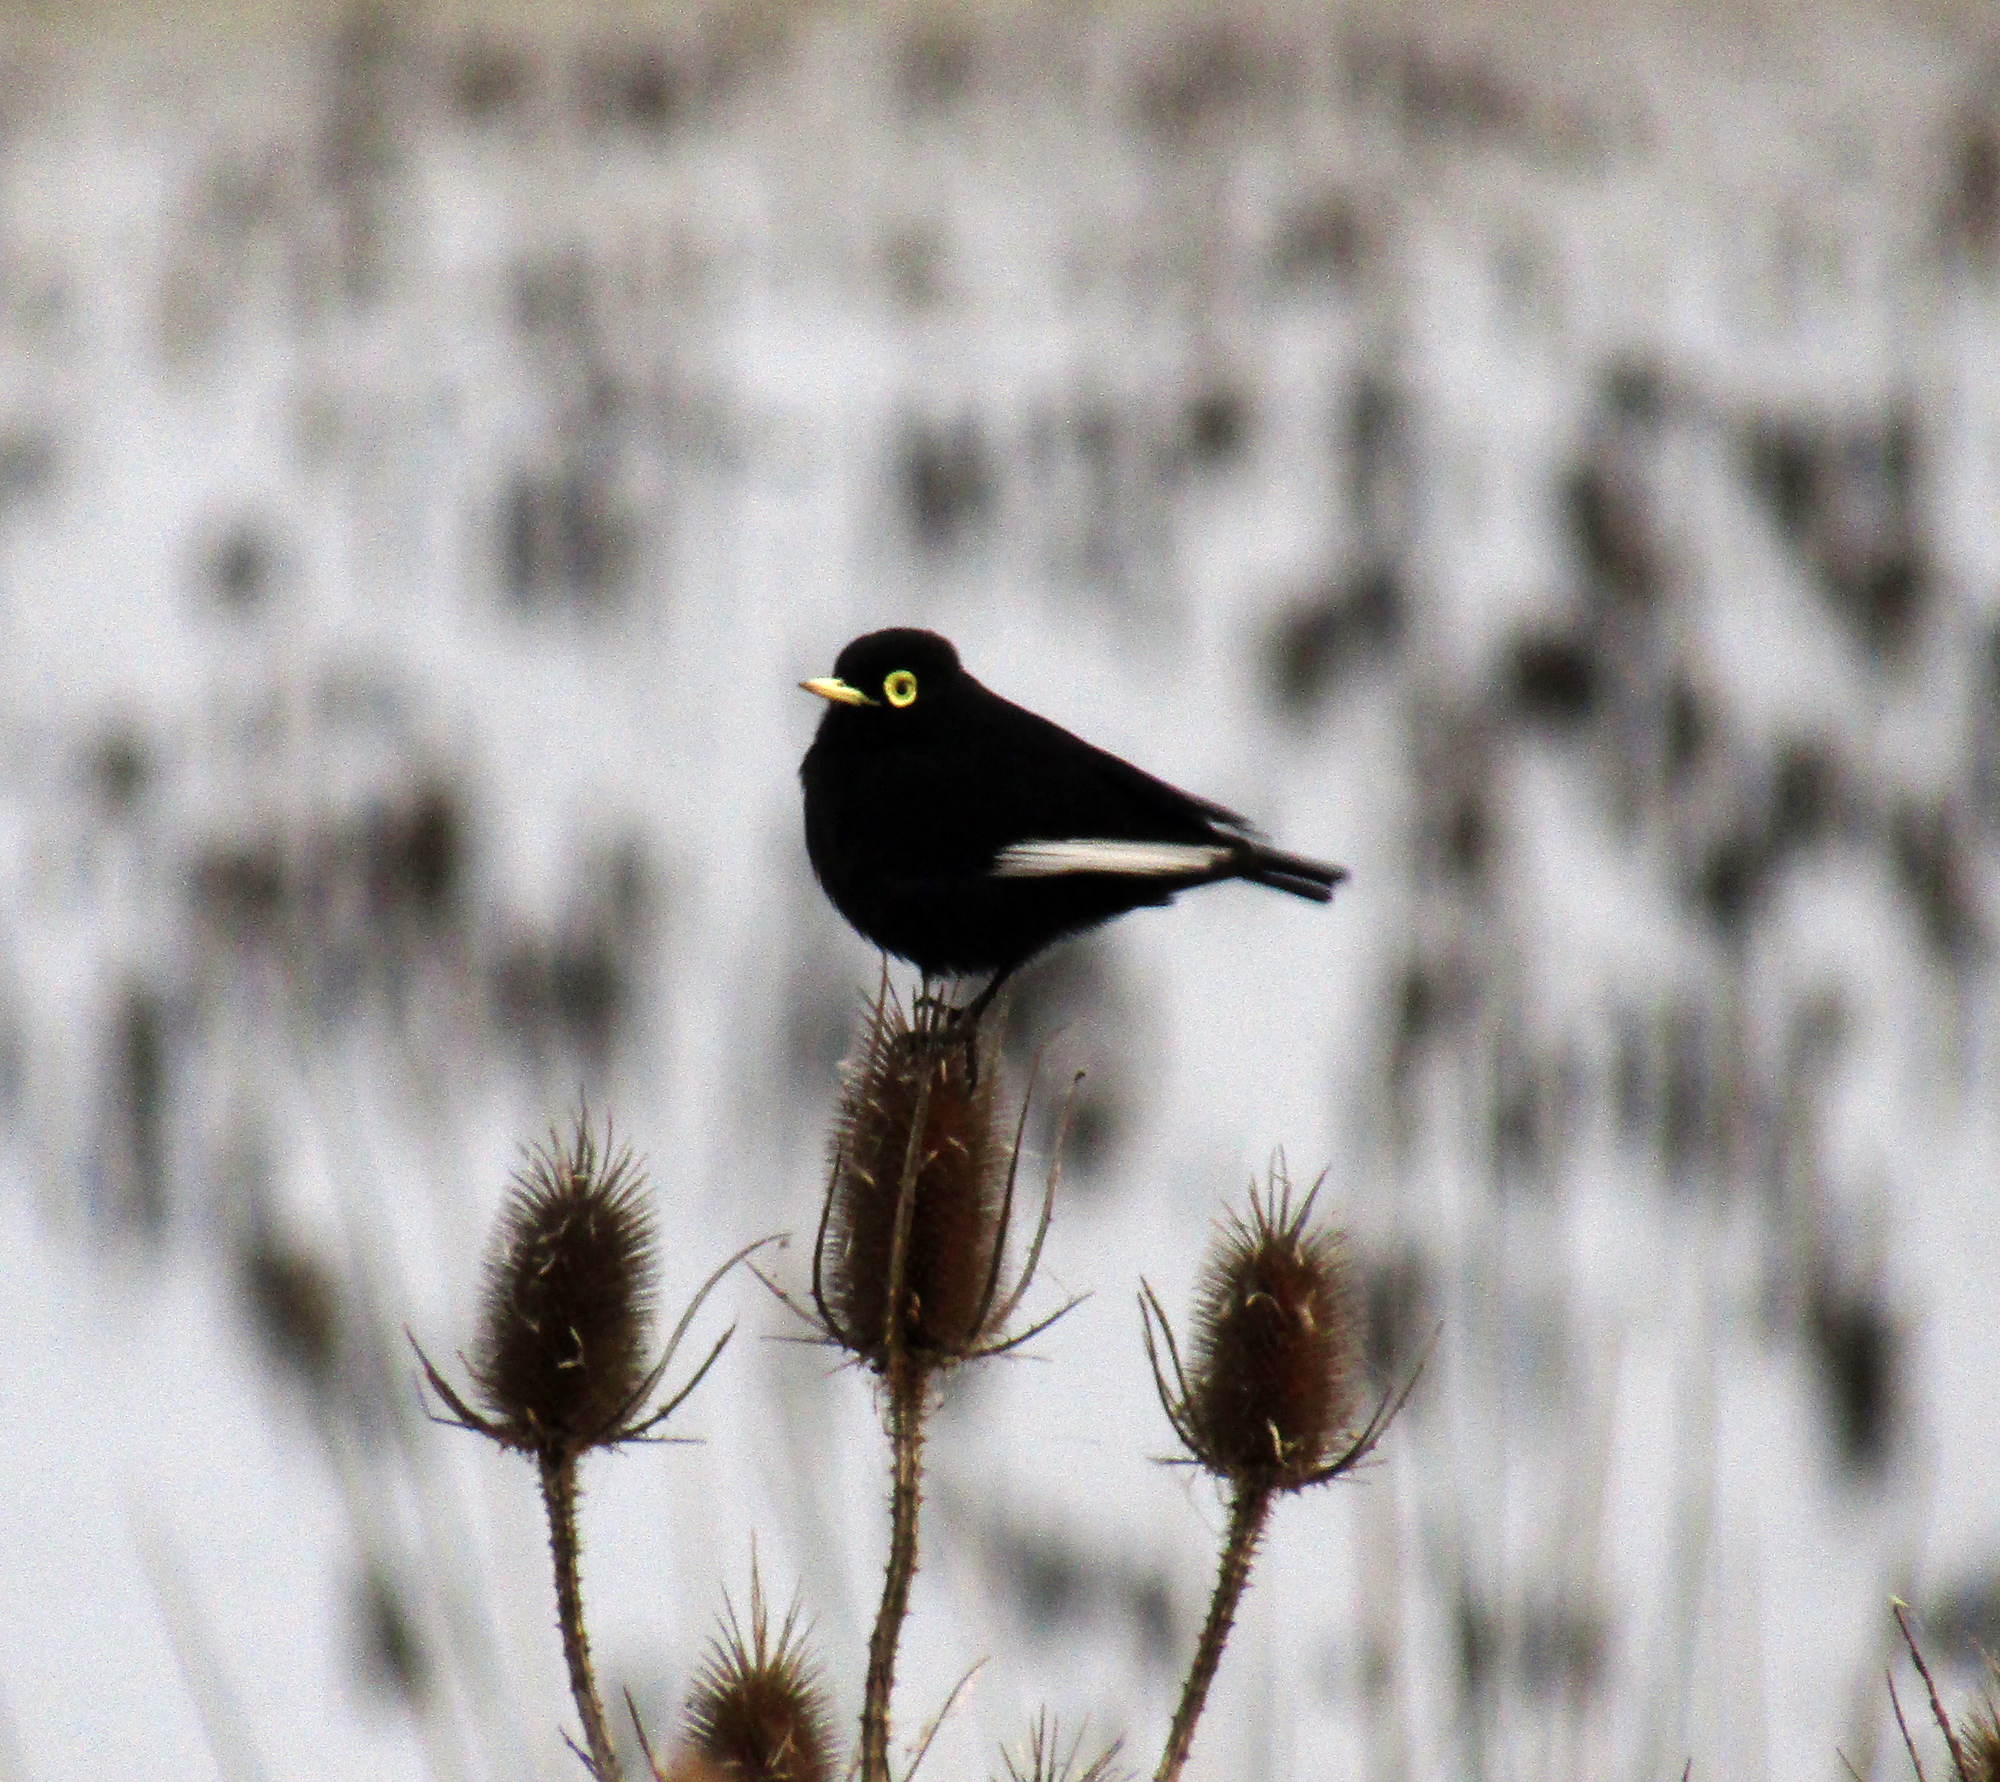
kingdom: Animalia
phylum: Chordata
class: Aves
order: Passeriformes
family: Tyrannidae
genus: Hymenops
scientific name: Hymenops perspicillatus
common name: Spectacled tyrant
